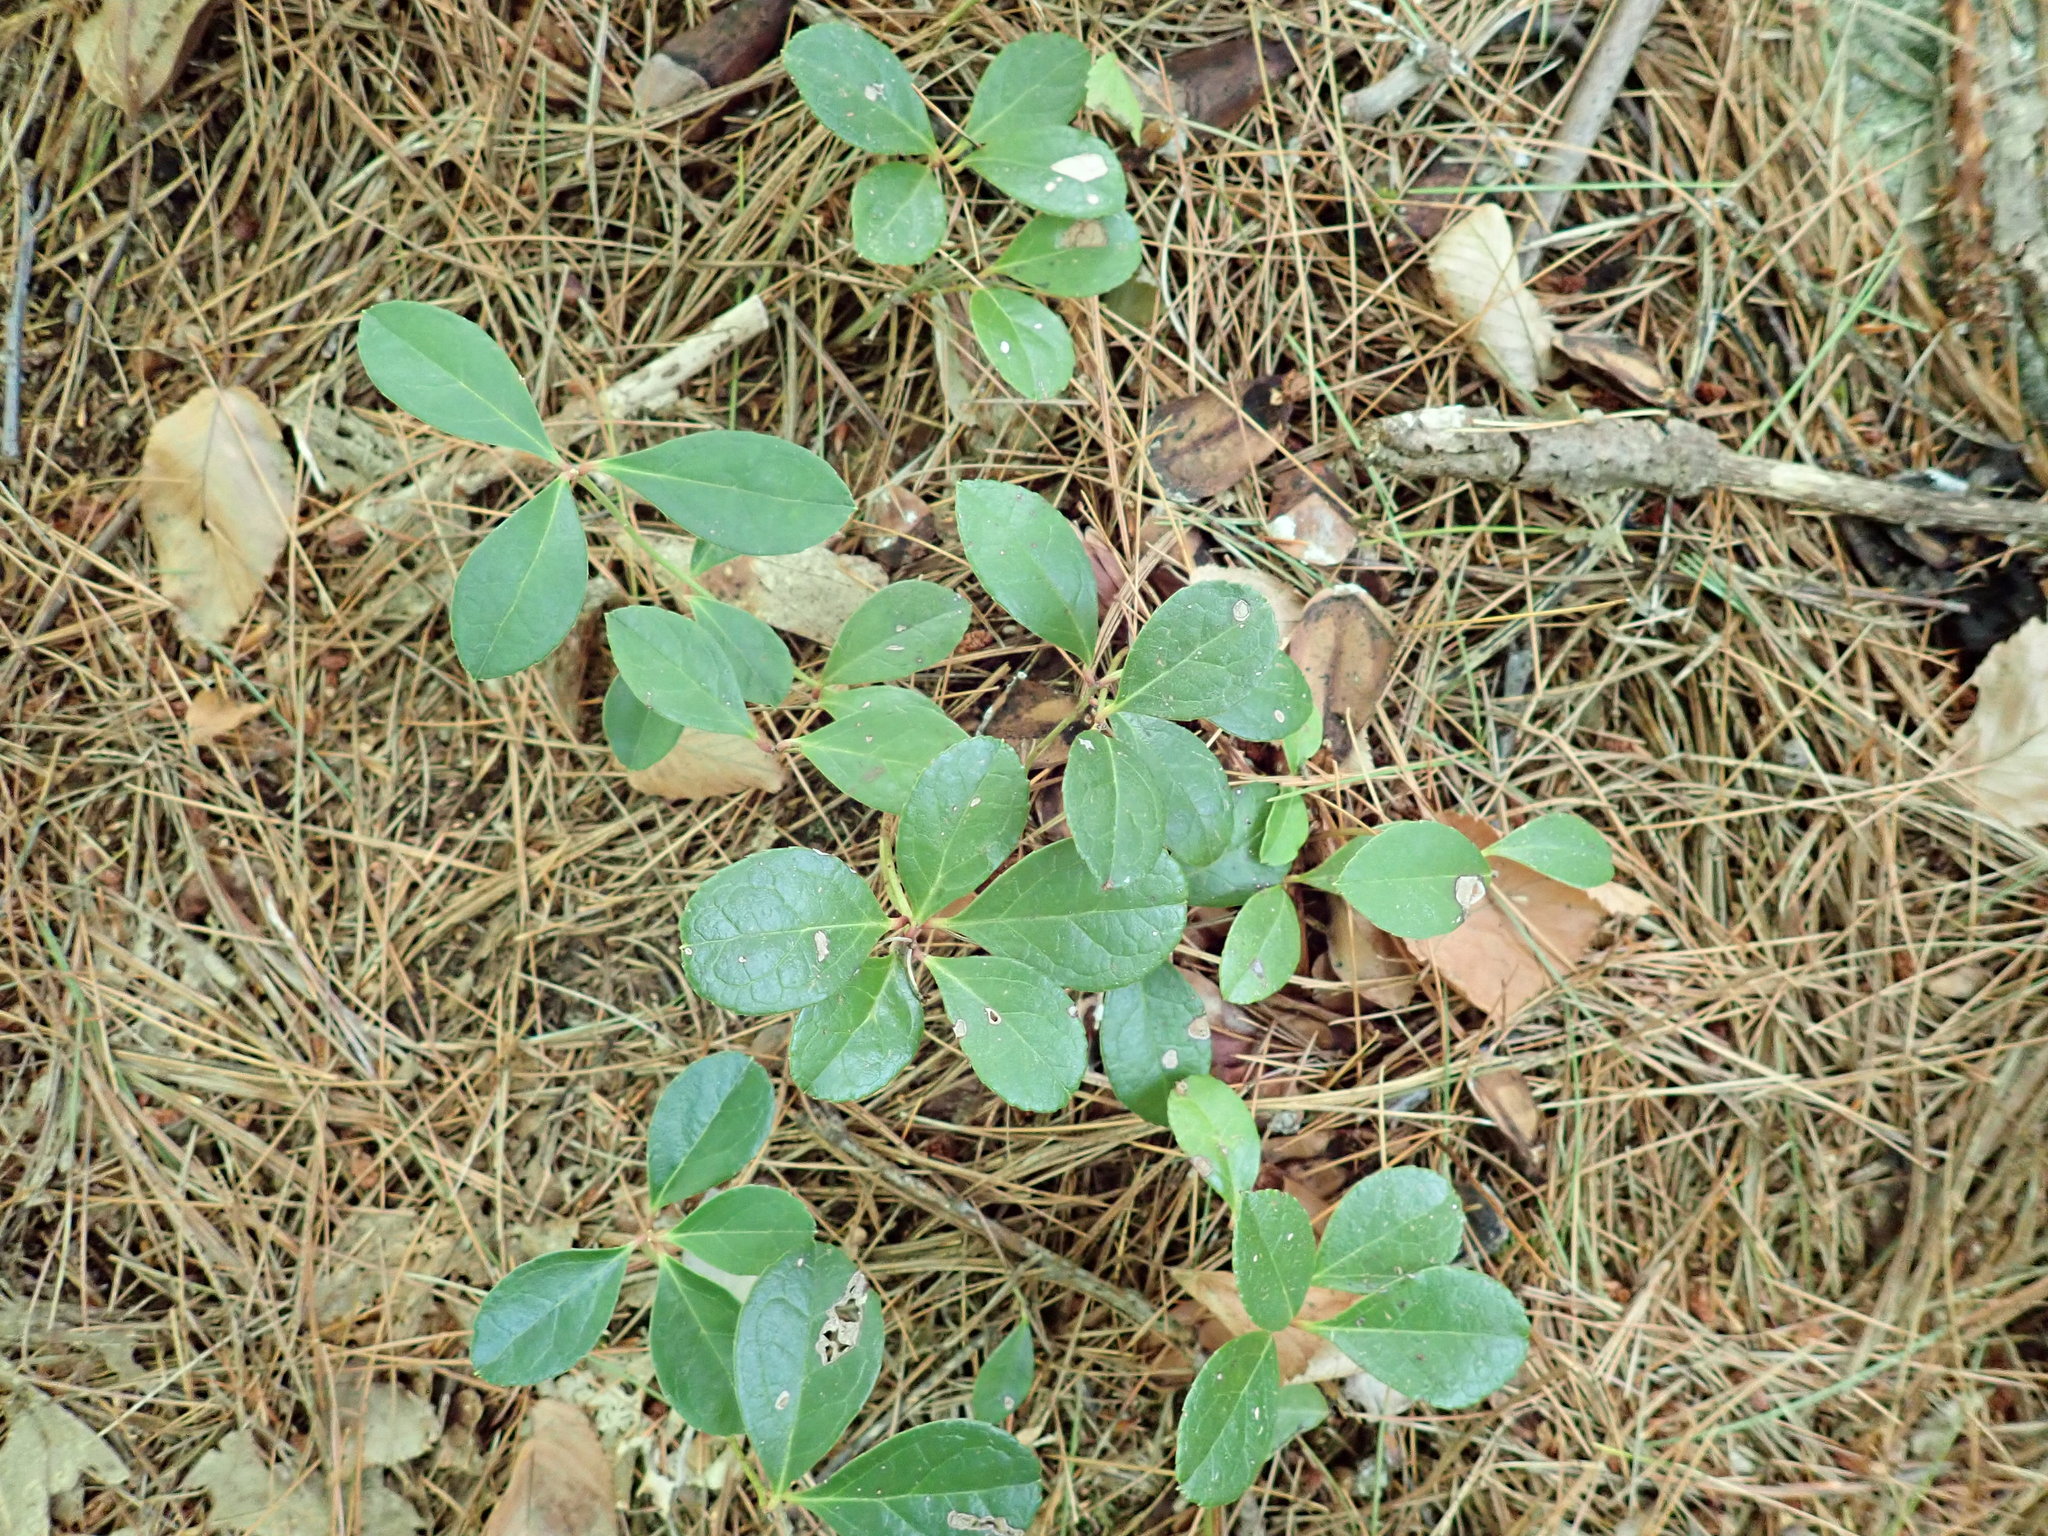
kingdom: Plantae
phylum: Tracheophyta
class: Magnoliopsida
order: Ericales
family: Ericaceae
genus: Gaultheria
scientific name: Gaultheria procumbens
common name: Checkerberry
